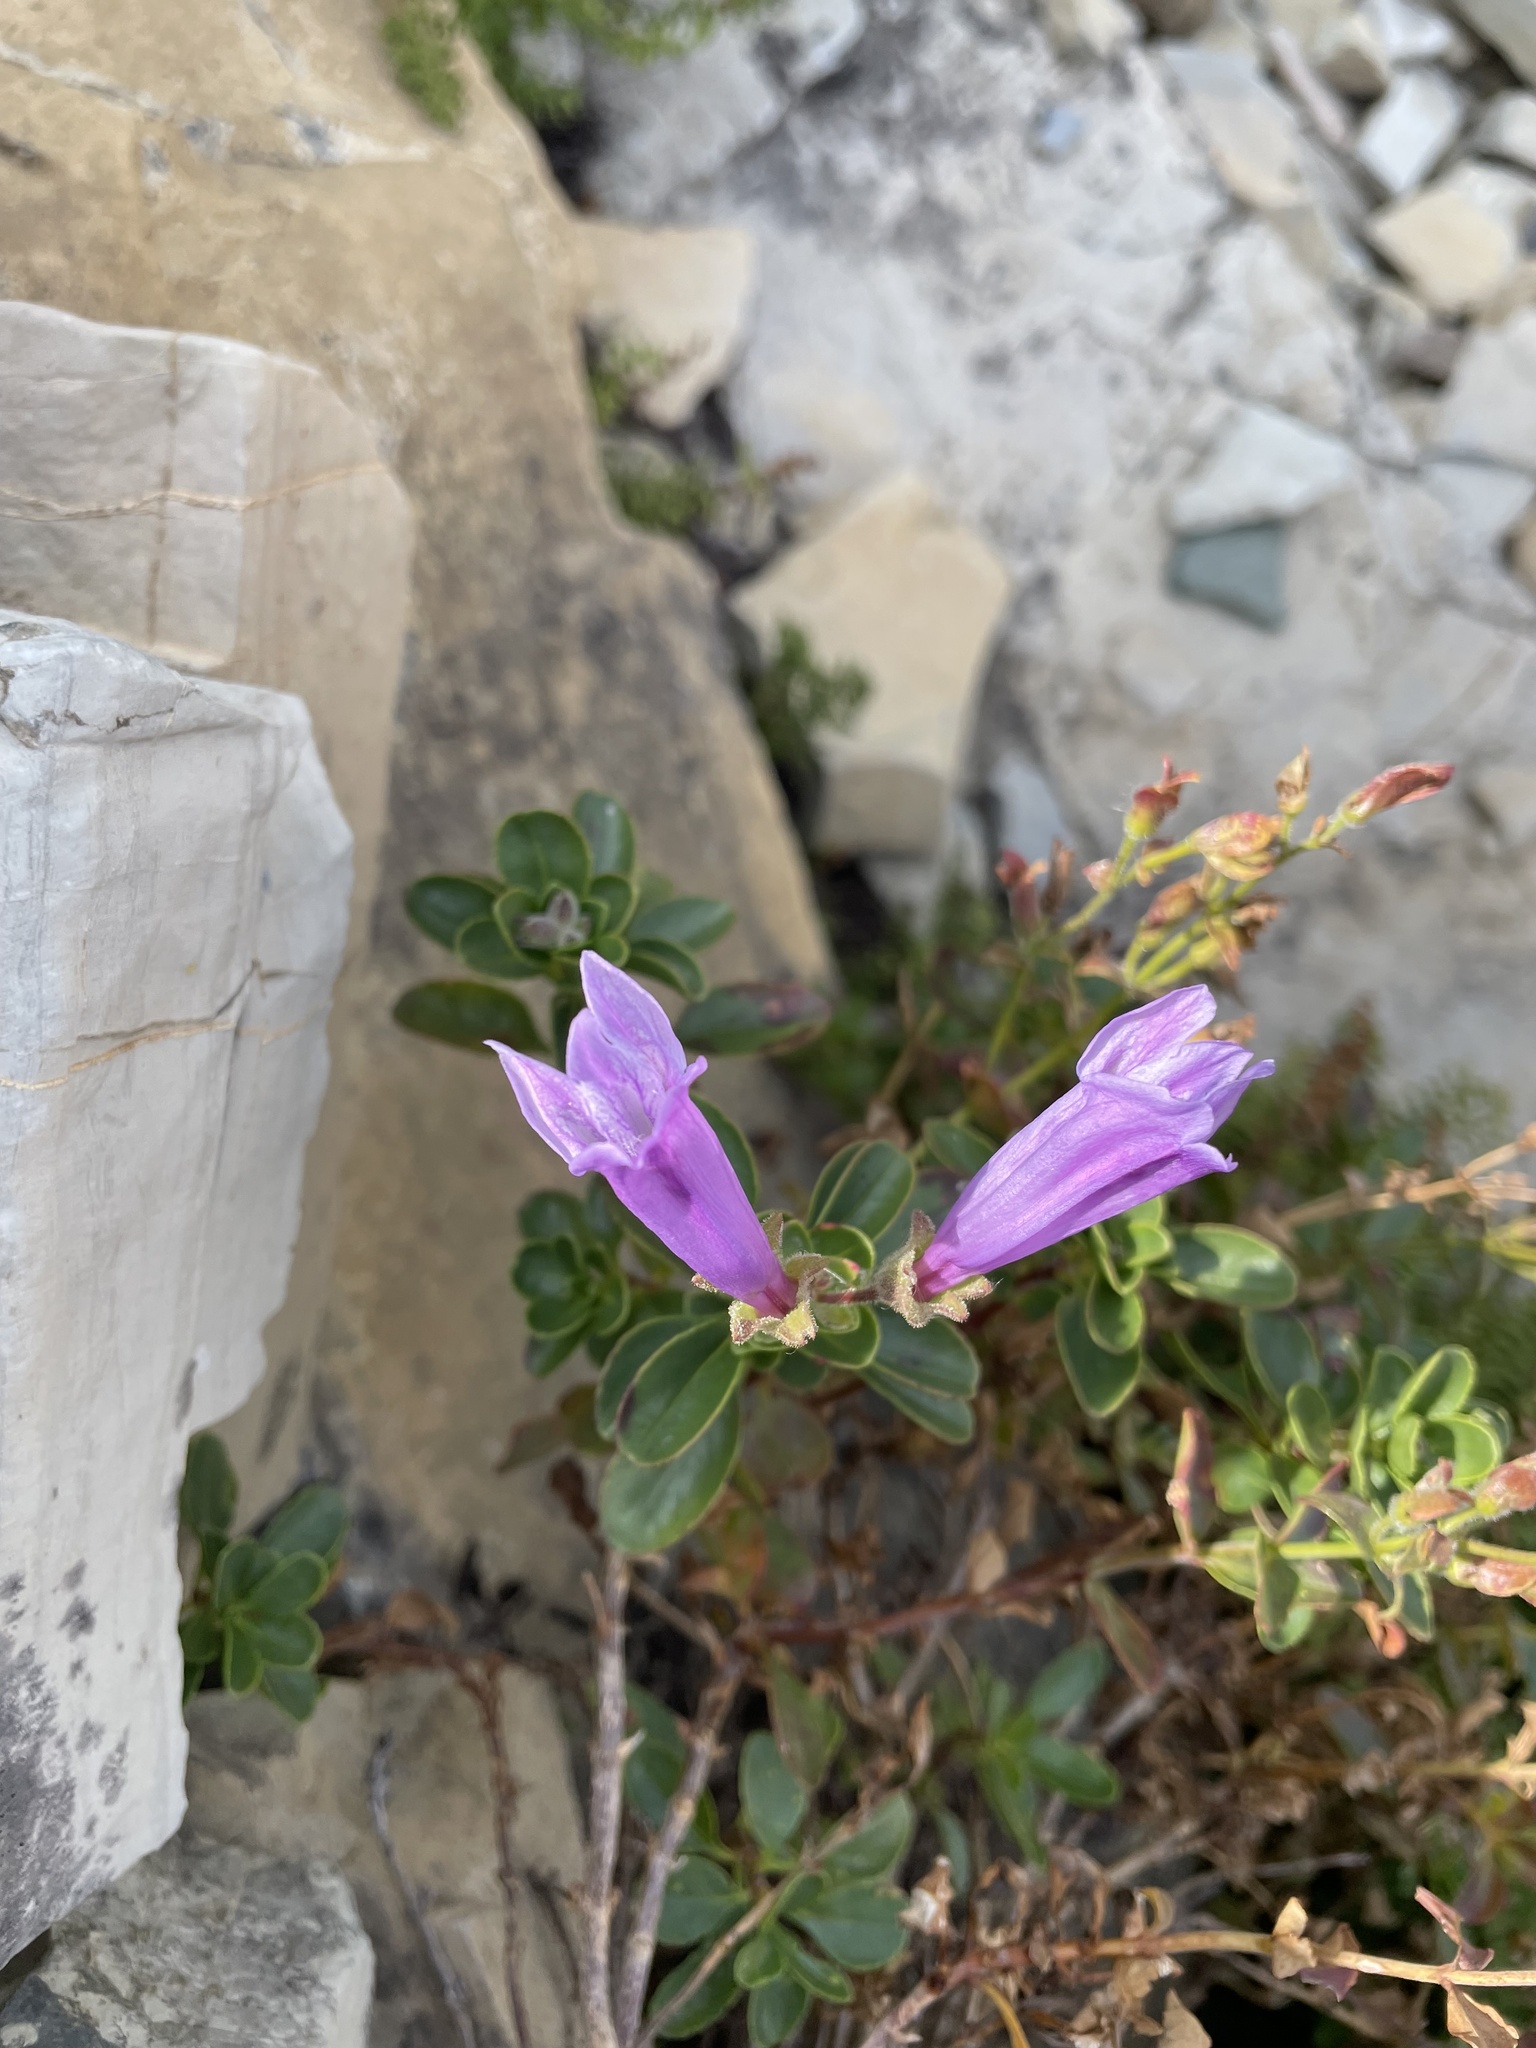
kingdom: Plantae
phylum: Tracheophyta
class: Magnoliopsida
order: Lamiales
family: Plantaginaceae
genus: Penstemon
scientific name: Penstemon ellipticus
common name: Alpine beardtongue
